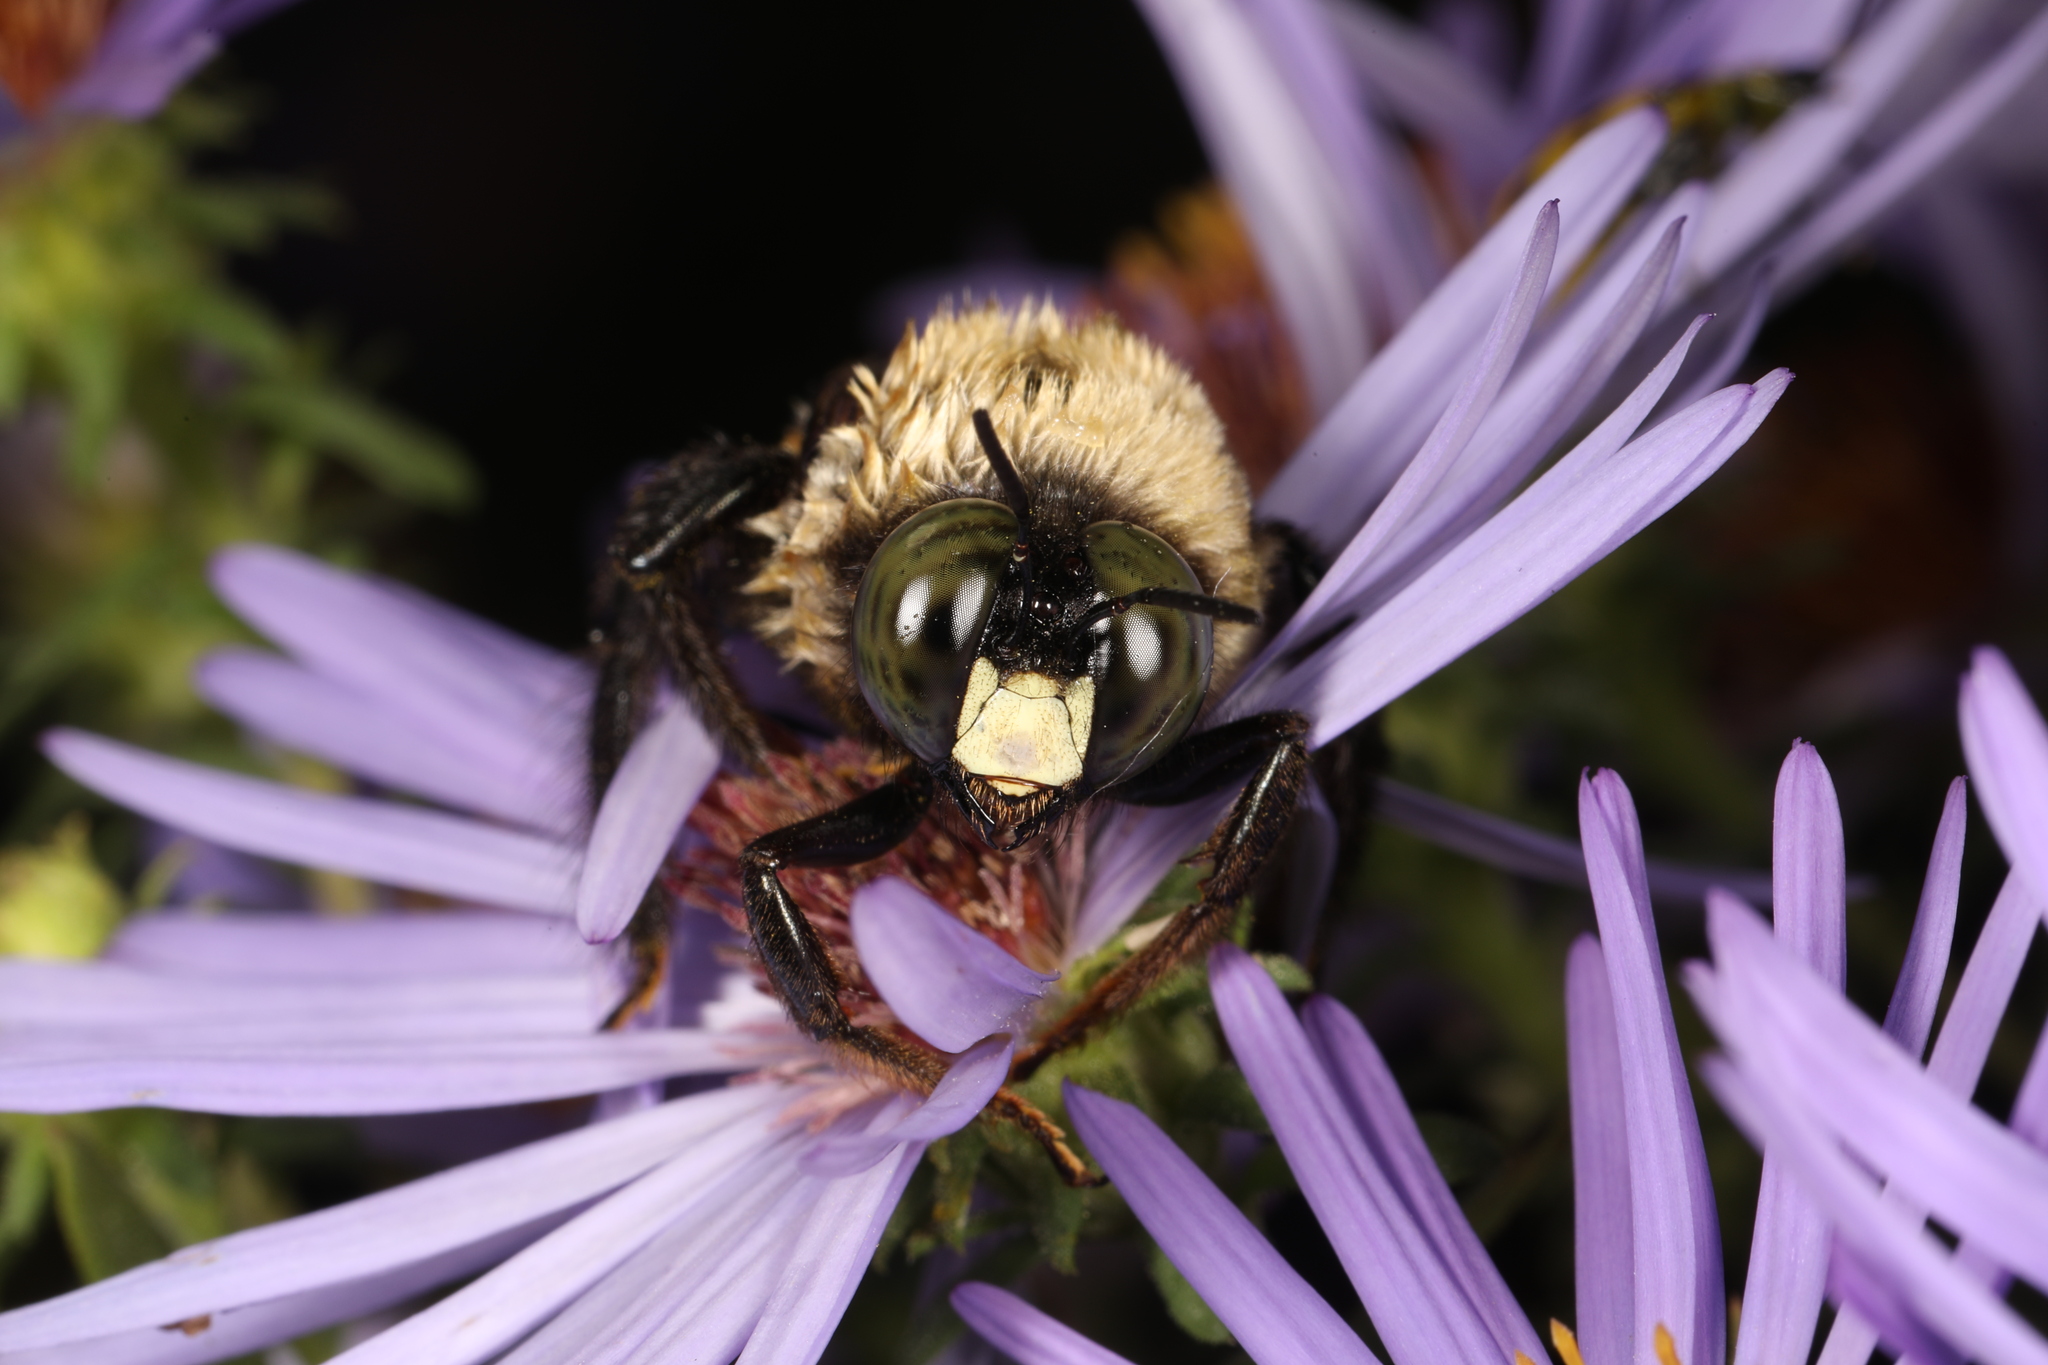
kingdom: Animalia
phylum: Arthropoda
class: Insecta
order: Hymenoptera
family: Apidae
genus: Xylocopa
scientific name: Xylocopa virginica
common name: Carpenter bee
